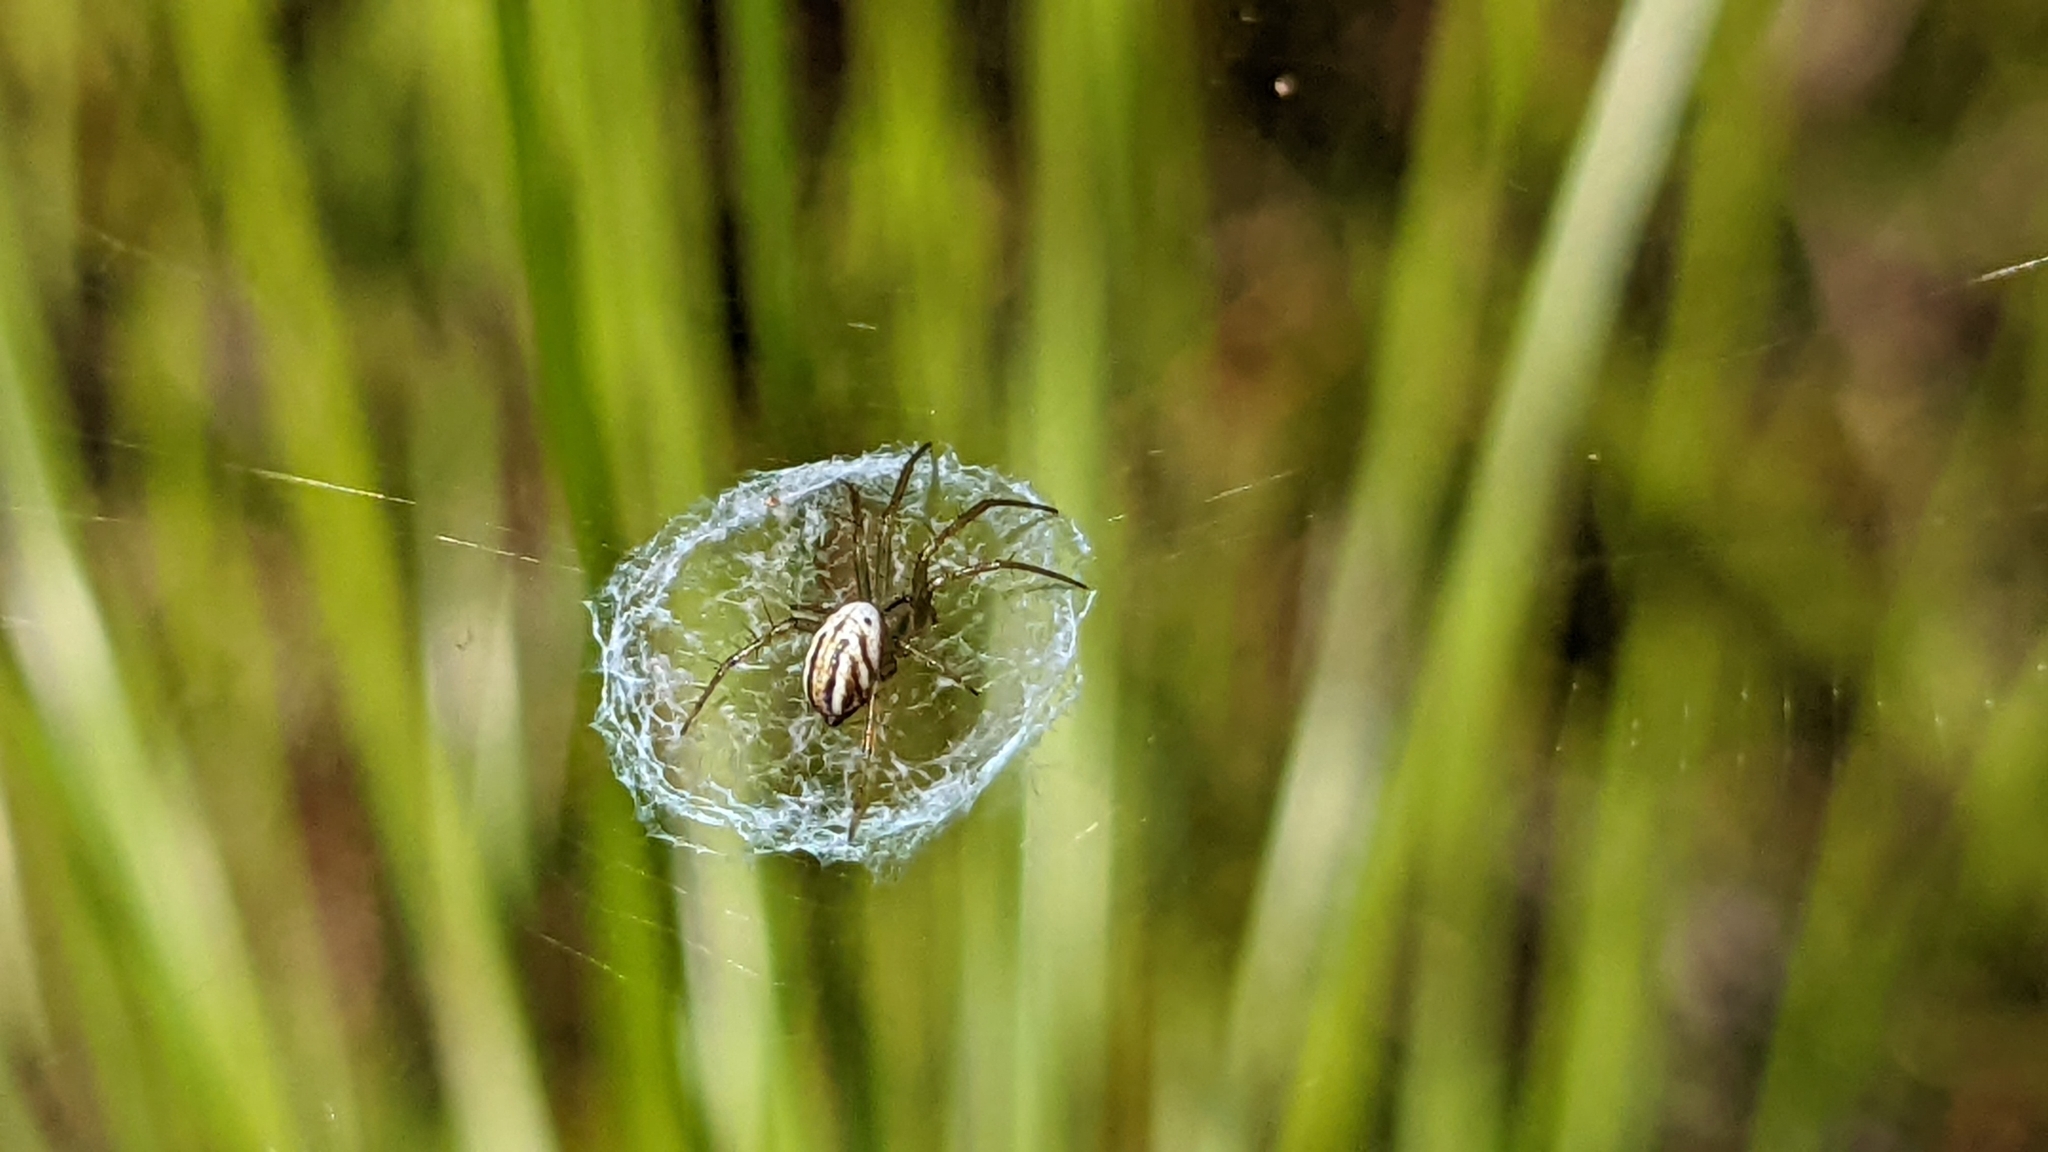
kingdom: Animalia
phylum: Arthropoda
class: Arachnida
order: Araneae
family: Araneidae
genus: Mangora
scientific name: Mangora gibberosa
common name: Lined orbweaver
